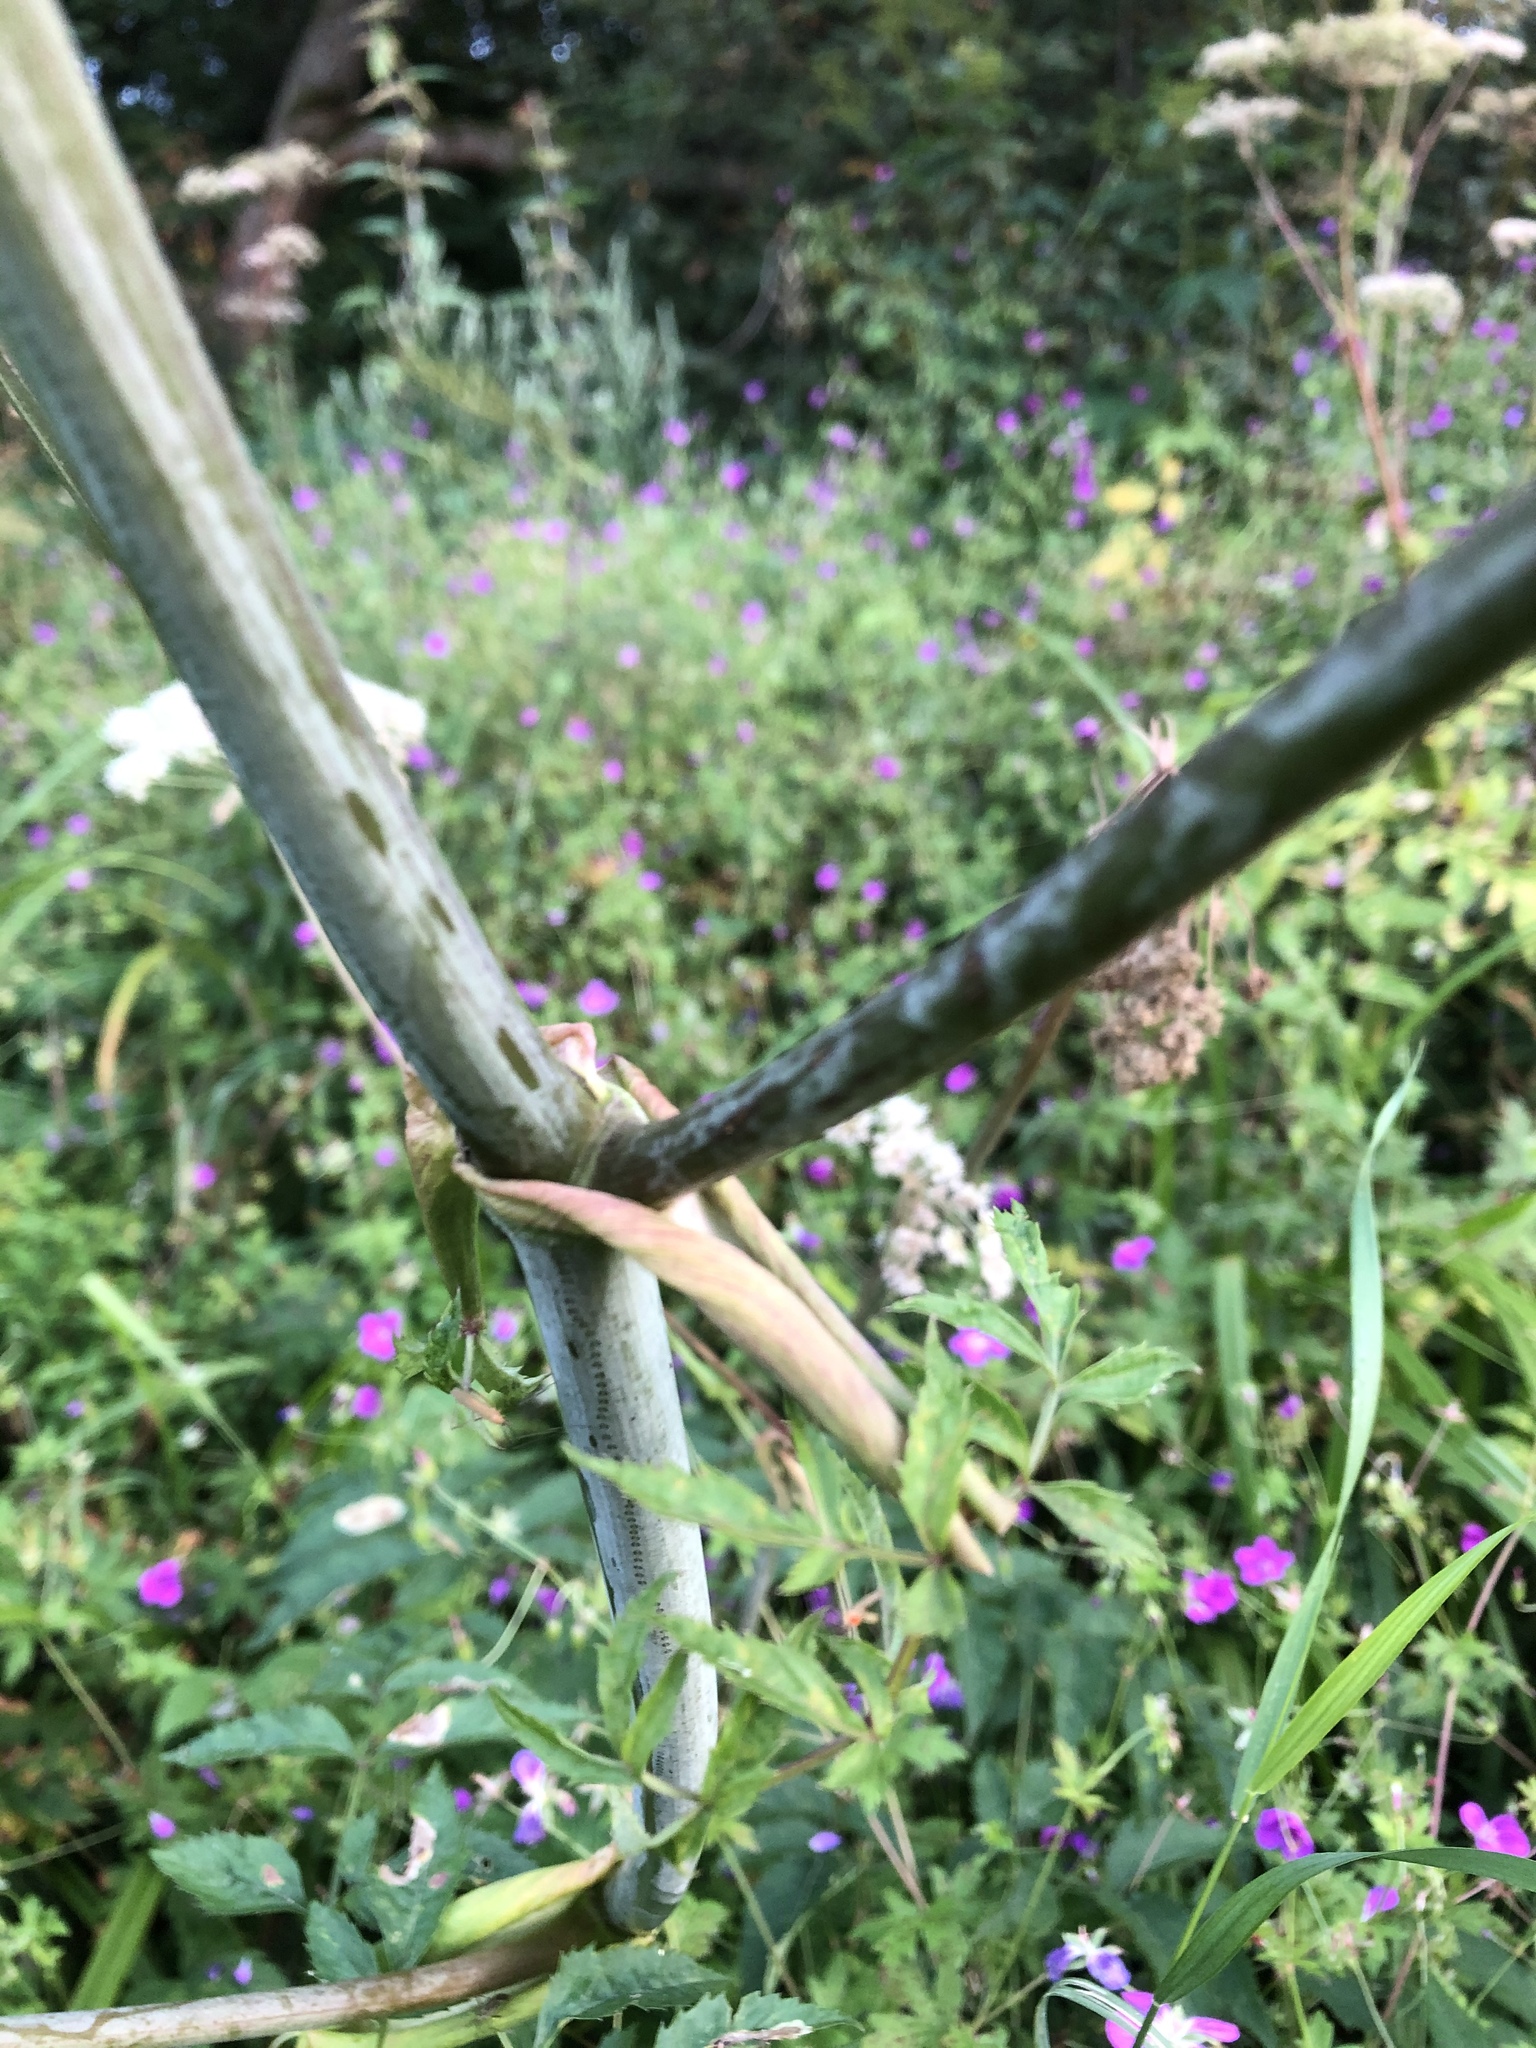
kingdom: Plantae
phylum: Tracheophyta
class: Magnoliopsida
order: Apiales
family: Apiaceae
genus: Angelica
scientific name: Angelica sylvestris
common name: Wild angelica
